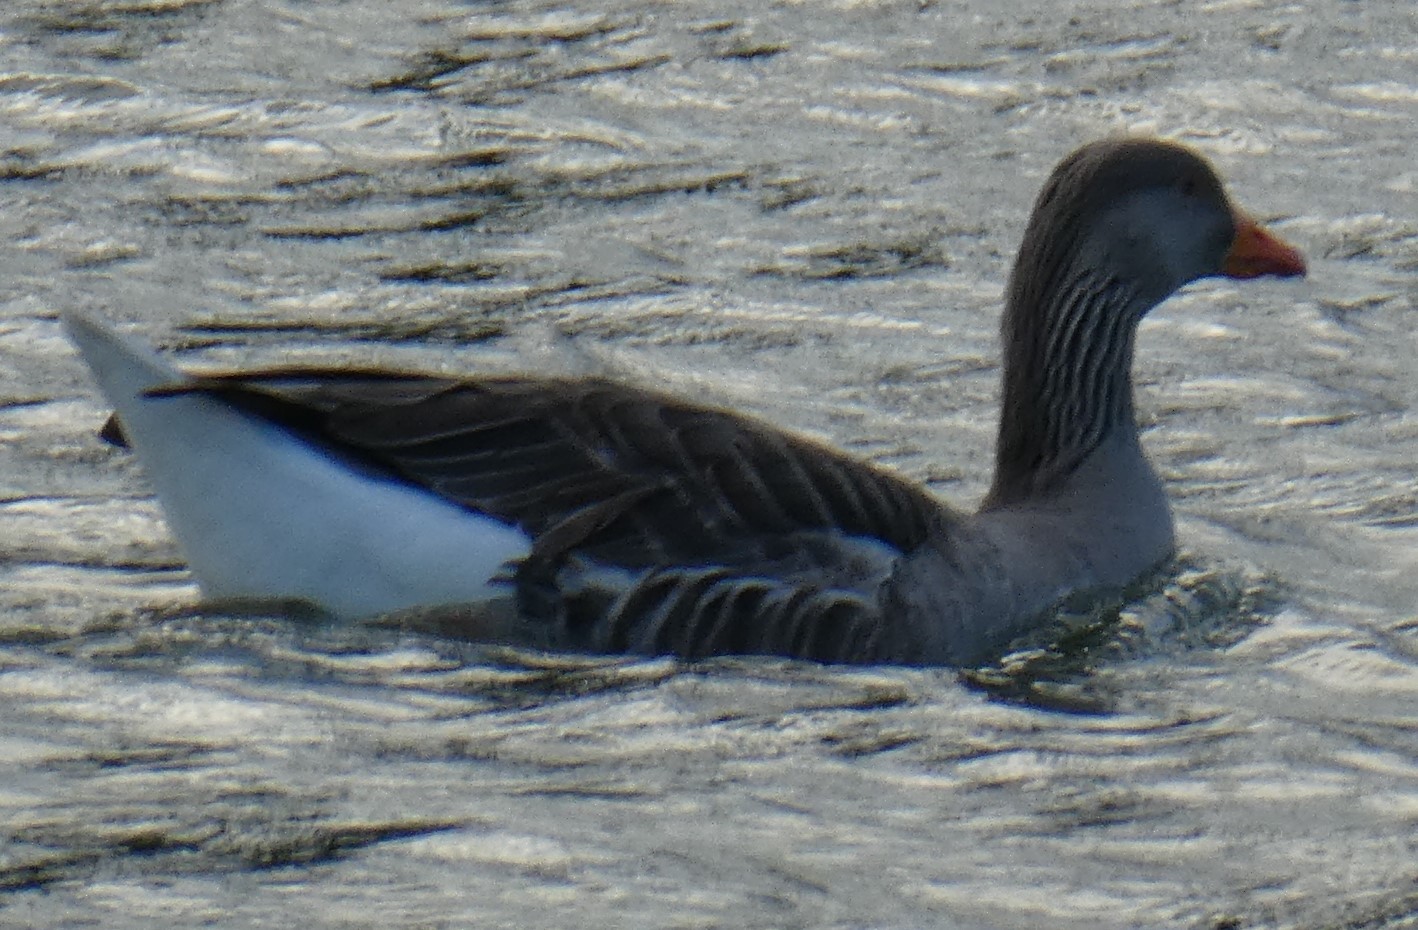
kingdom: Animalia
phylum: Chordata
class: Aves
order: Anseriformes
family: Anatidae
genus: Anser
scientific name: Anser anser
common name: Greylag goose
